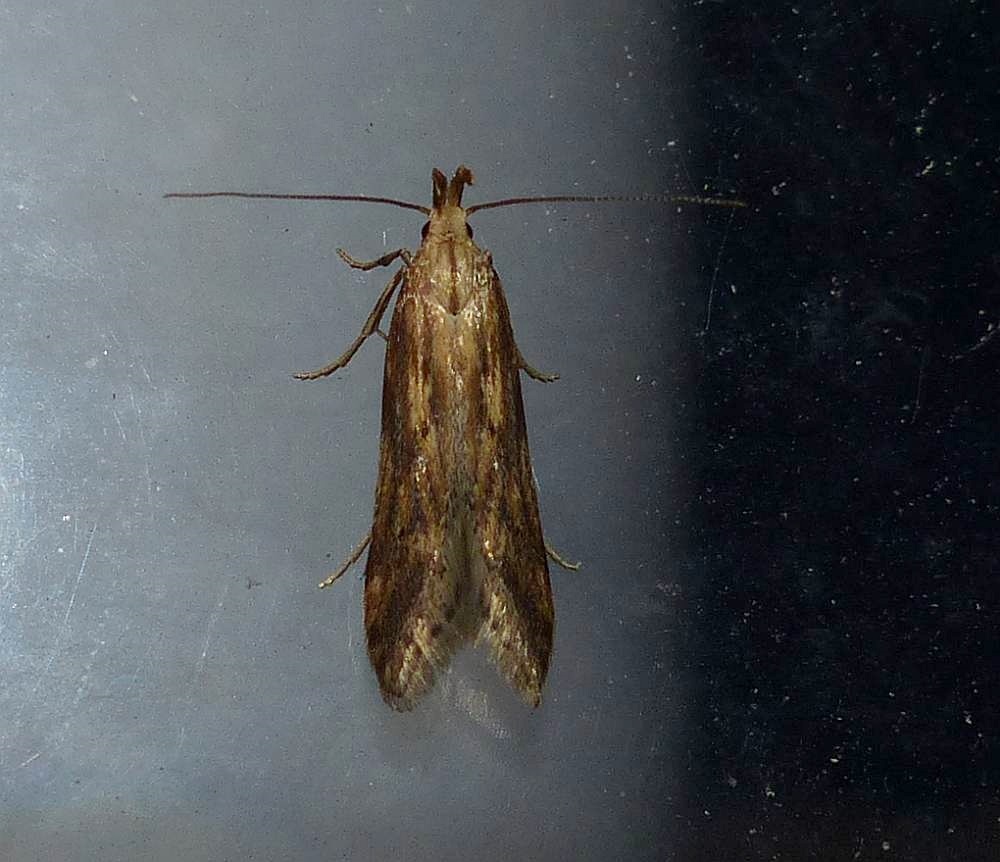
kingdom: Animalia
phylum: Arthropoda
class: Insecta
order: Lepidoptera
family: Gelechiidae
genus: Metzneria
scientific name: Metzneria lappella
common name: Burdock neb
